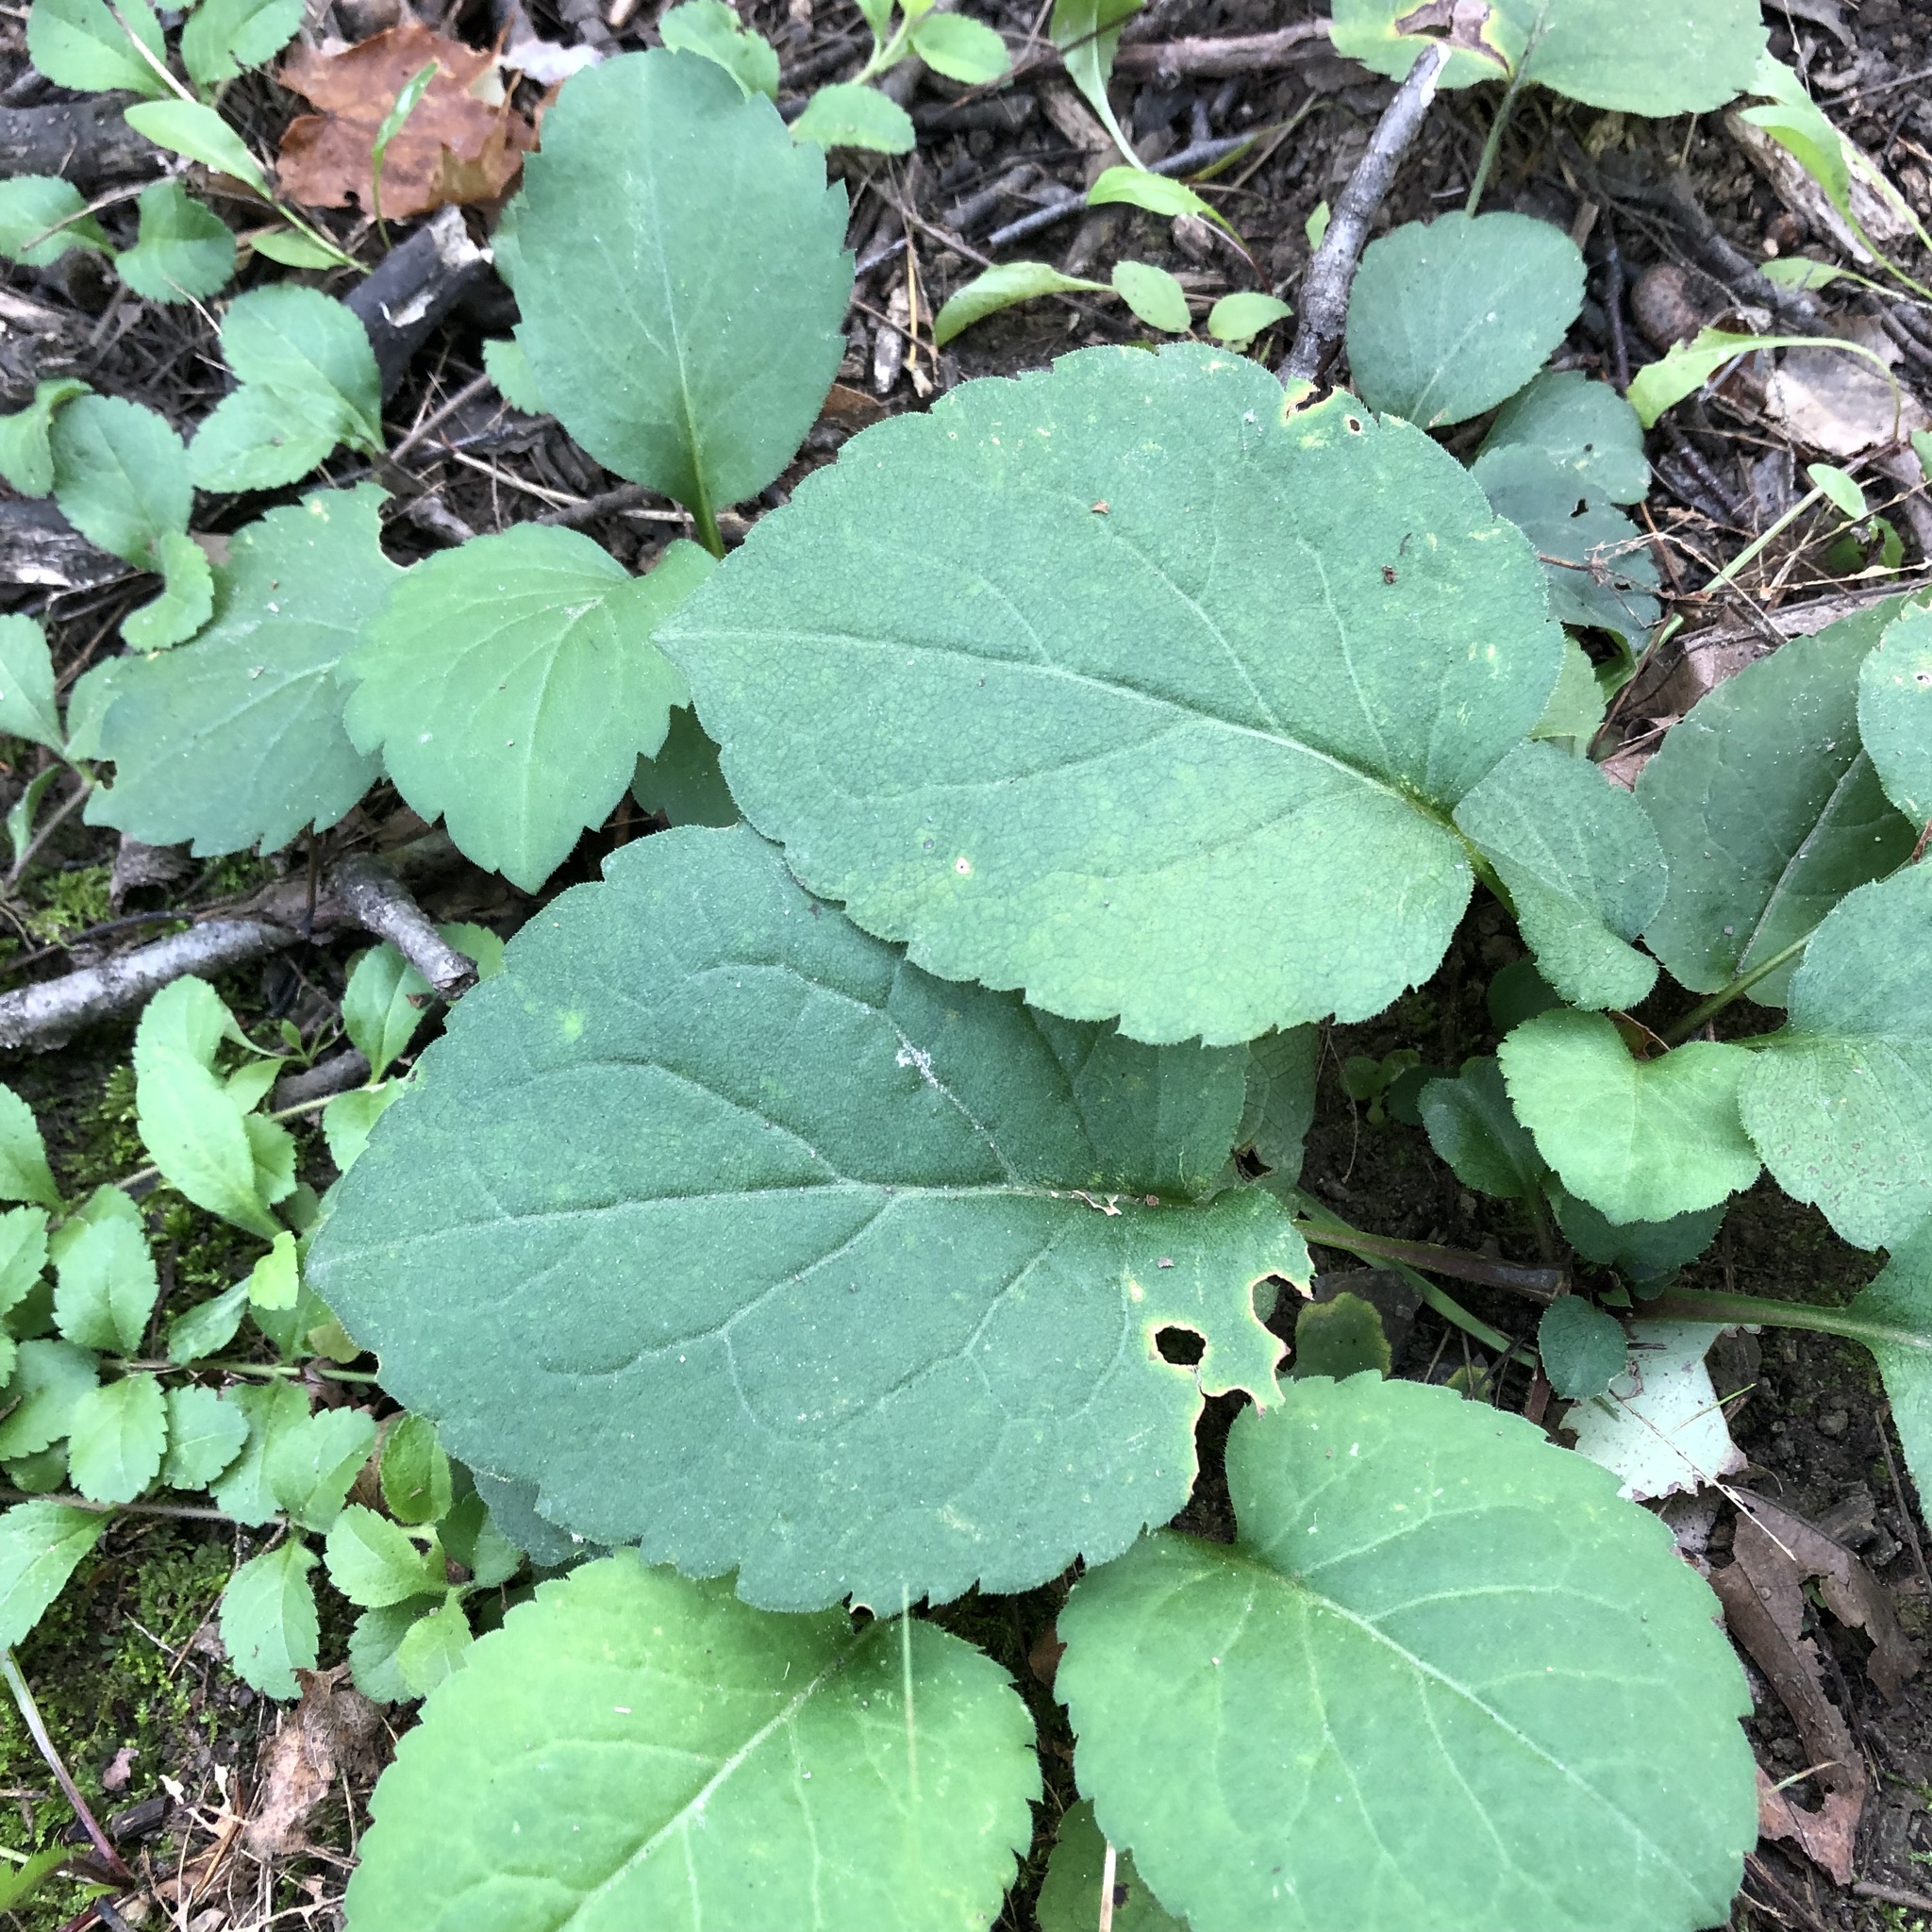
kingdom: Plantae
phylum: Tracheophyta
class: Magnoliopsida
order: Asterales
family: Asteraceae
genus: Eurybia
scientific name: Eurybia macrophylla
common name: Big-leaved aster
